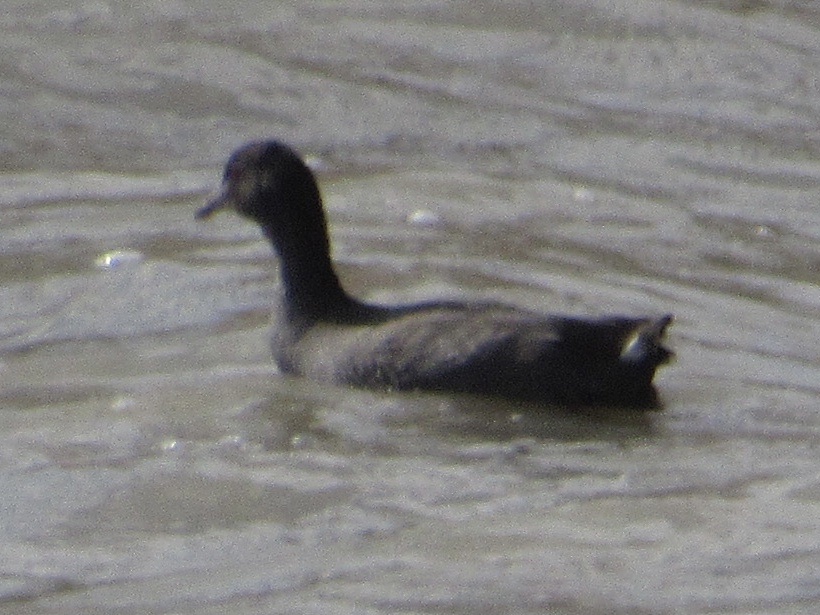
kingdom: Animalia
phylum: Chordata
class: Aves
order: Gruiformes
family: Rallidae
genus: Fulica
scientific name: Fulica americana
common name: American coot
